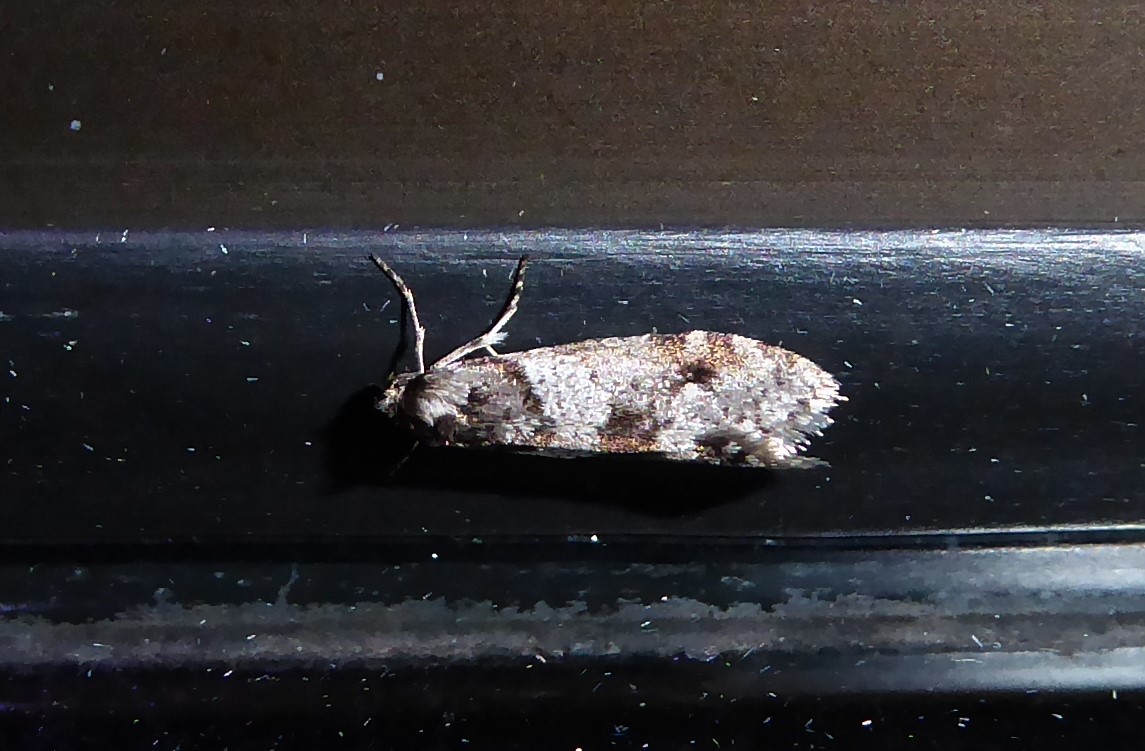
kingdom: Animalia
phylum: Arthropoda
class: Insecta
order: Lepidoptera
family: Psychidae
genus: Lepidoscia
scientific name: Lepidoscia heliochares
